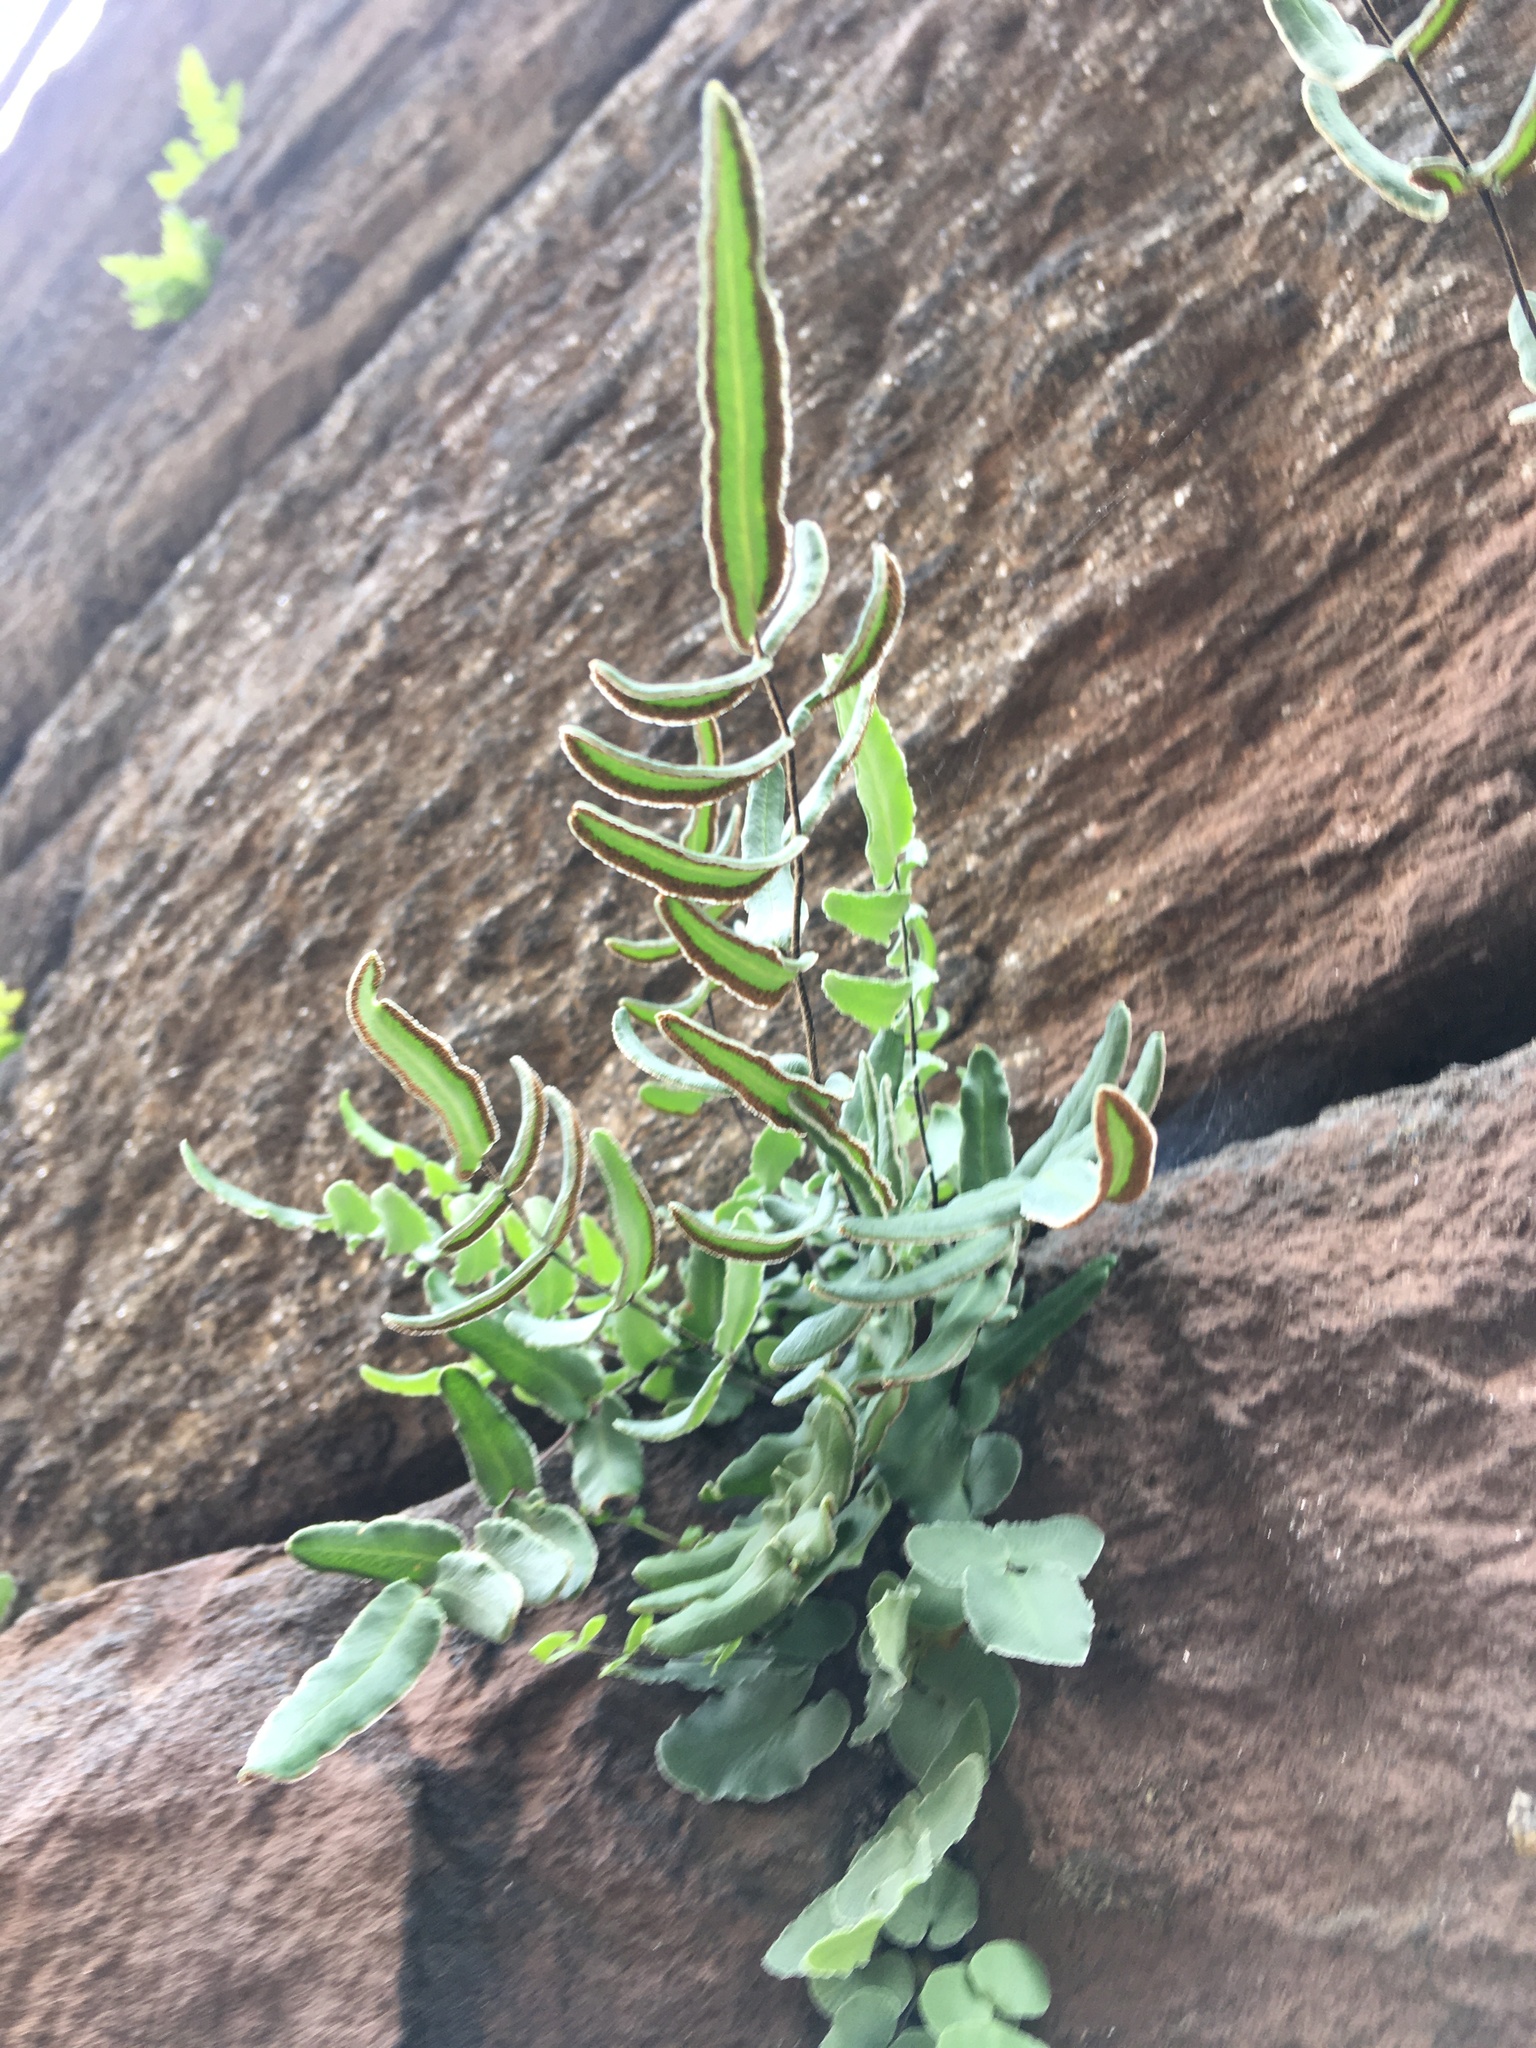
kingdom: Plantae
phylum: Tracheophyta
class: Polypodiopsida
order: Polypodiales
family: Pteridaceae
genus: Pellaea
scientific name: Pellaea atropurpurea
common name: Hairy cliffbrake
